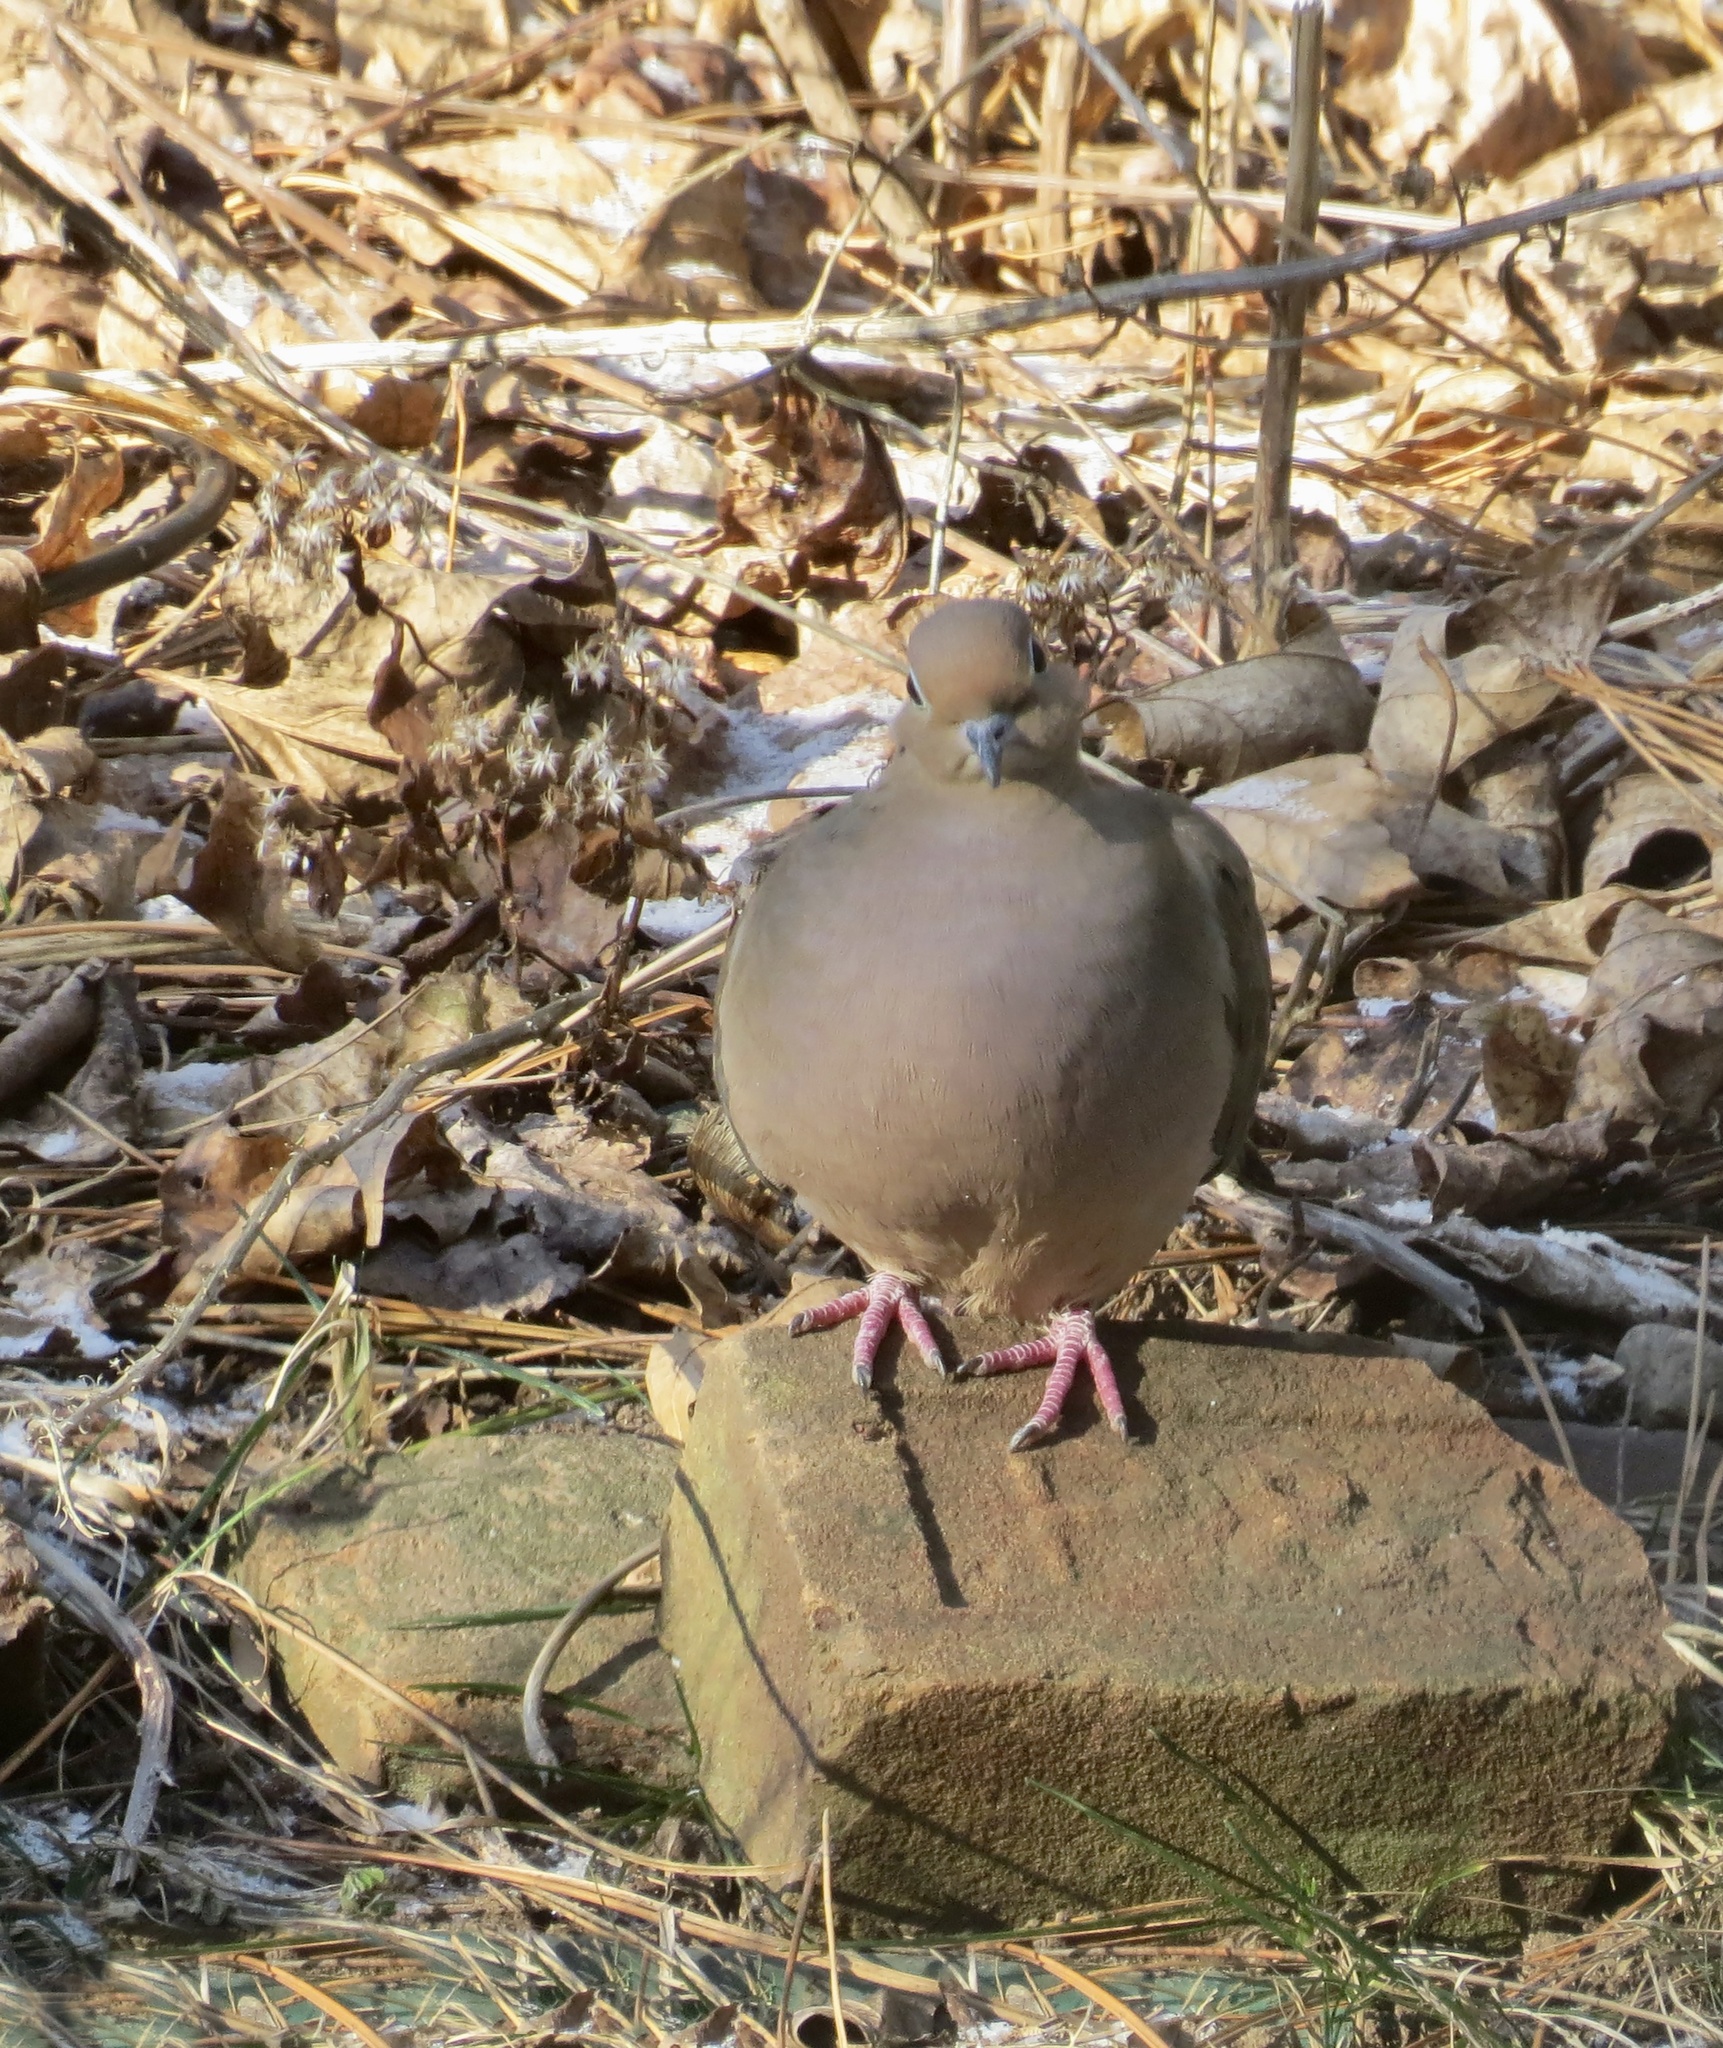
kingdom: Animalia
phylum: Chordata
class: Aves
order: Columbiformes
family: Columbidae
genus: Zenaida
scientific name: Zenaida macroura
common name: Mourning dove
